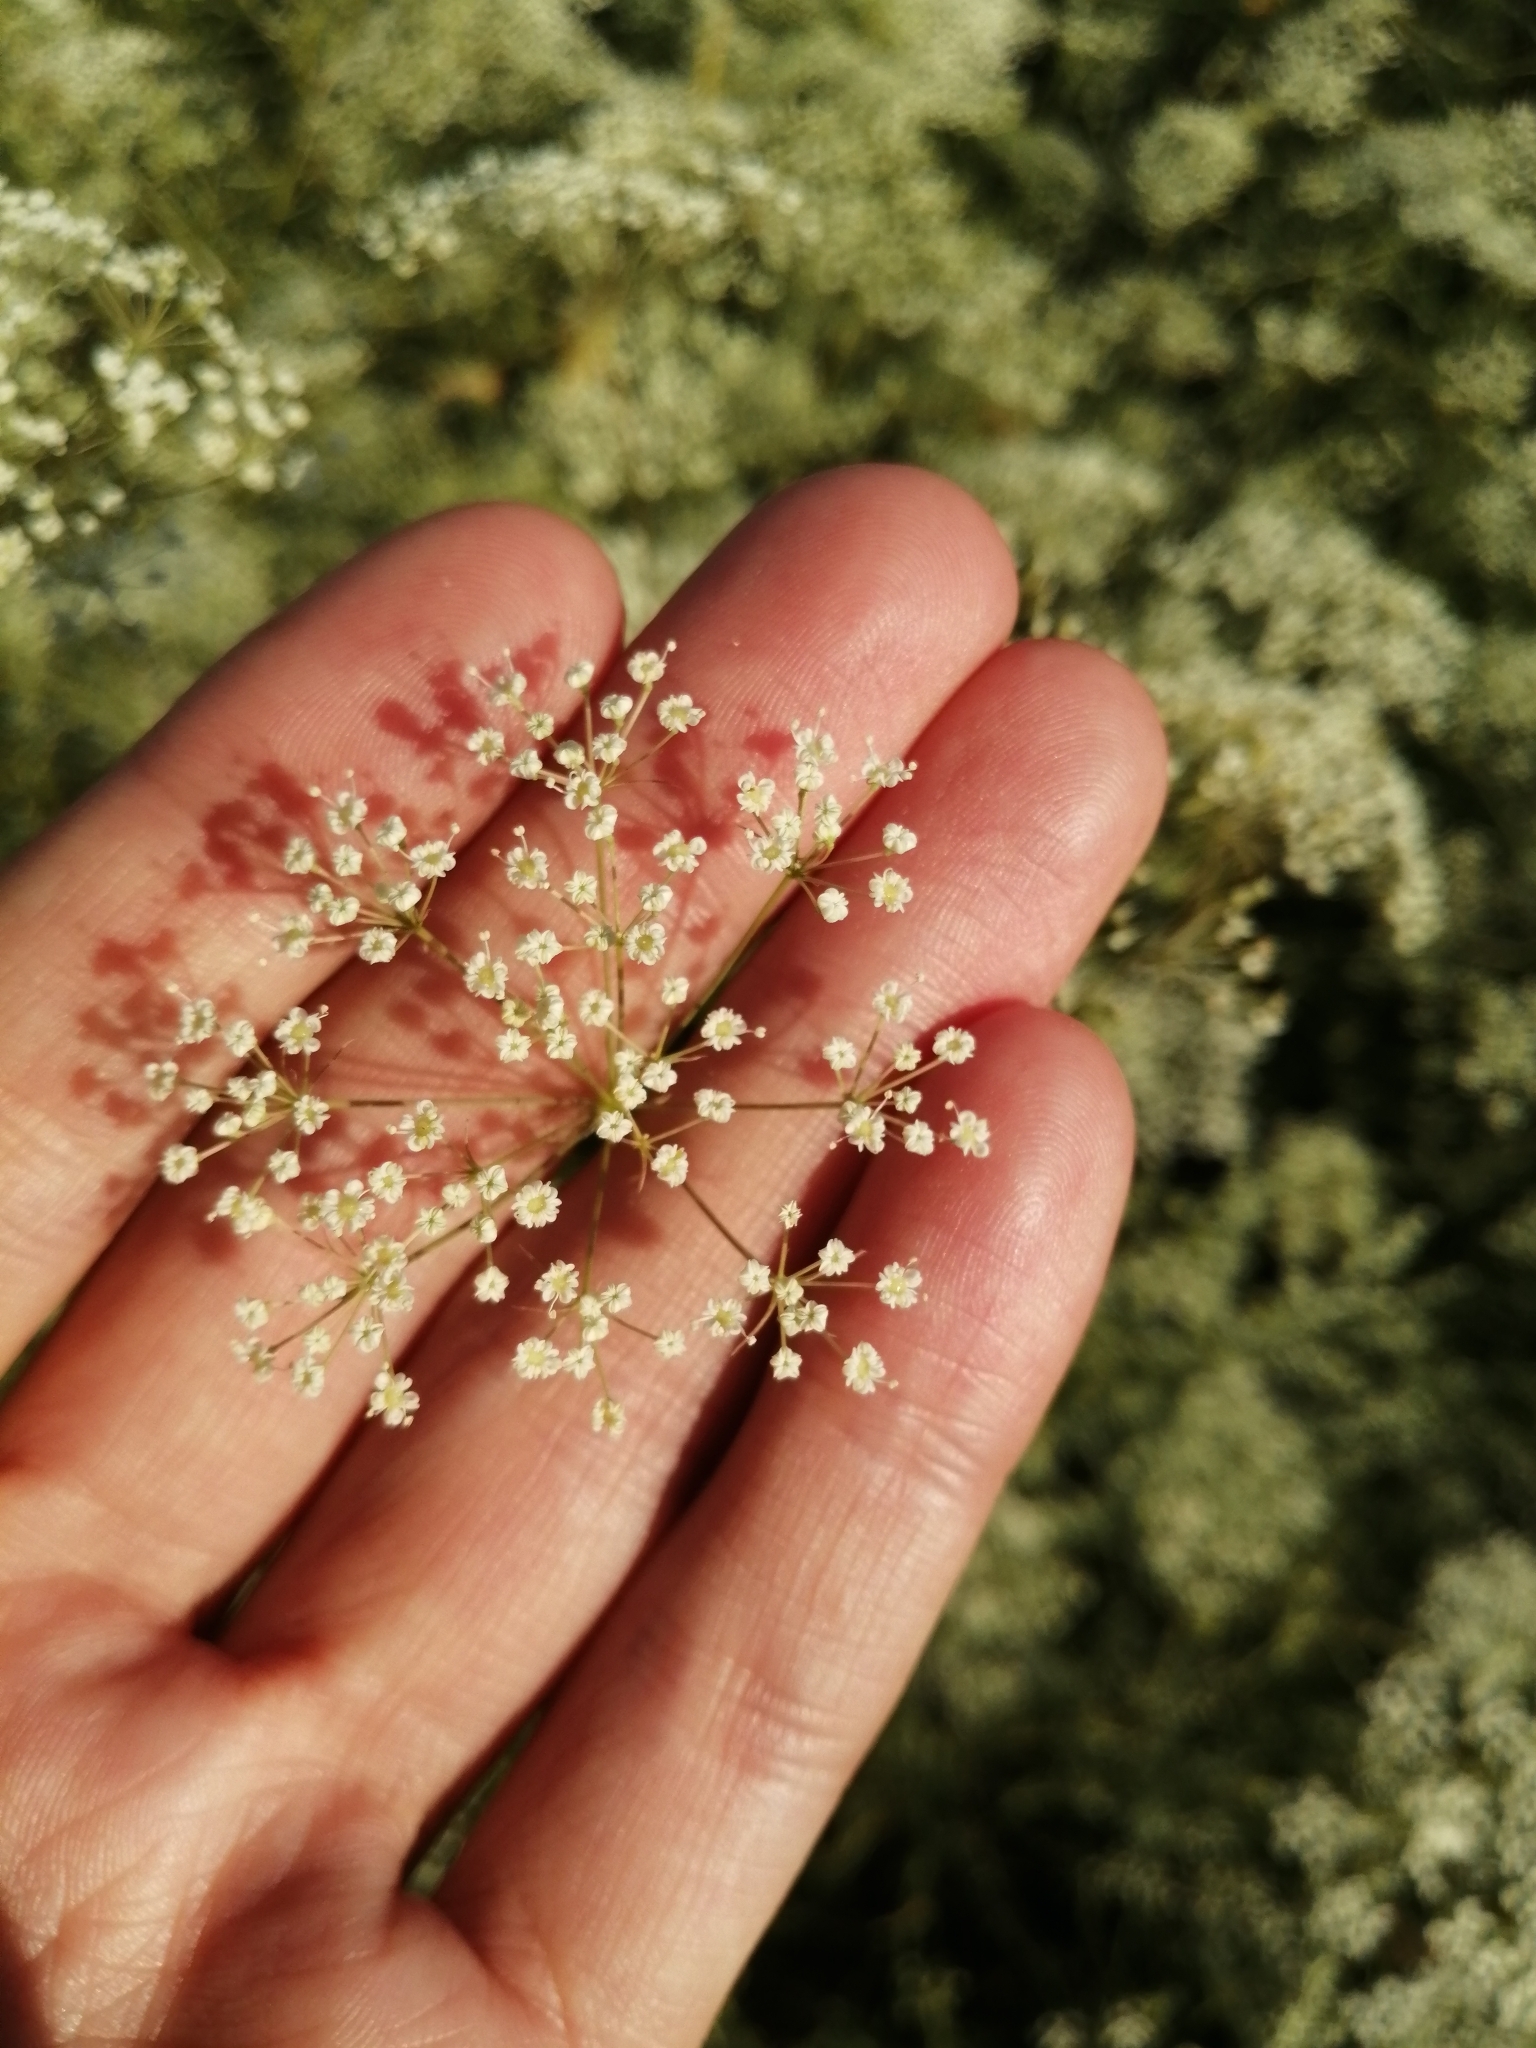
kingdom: Plantae
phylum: Tracheophyta
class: Magnoliopsida
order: Apiales
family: Apiaceae
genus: Falcaria
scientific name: Falcaria vulgaris
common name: Longleaf
